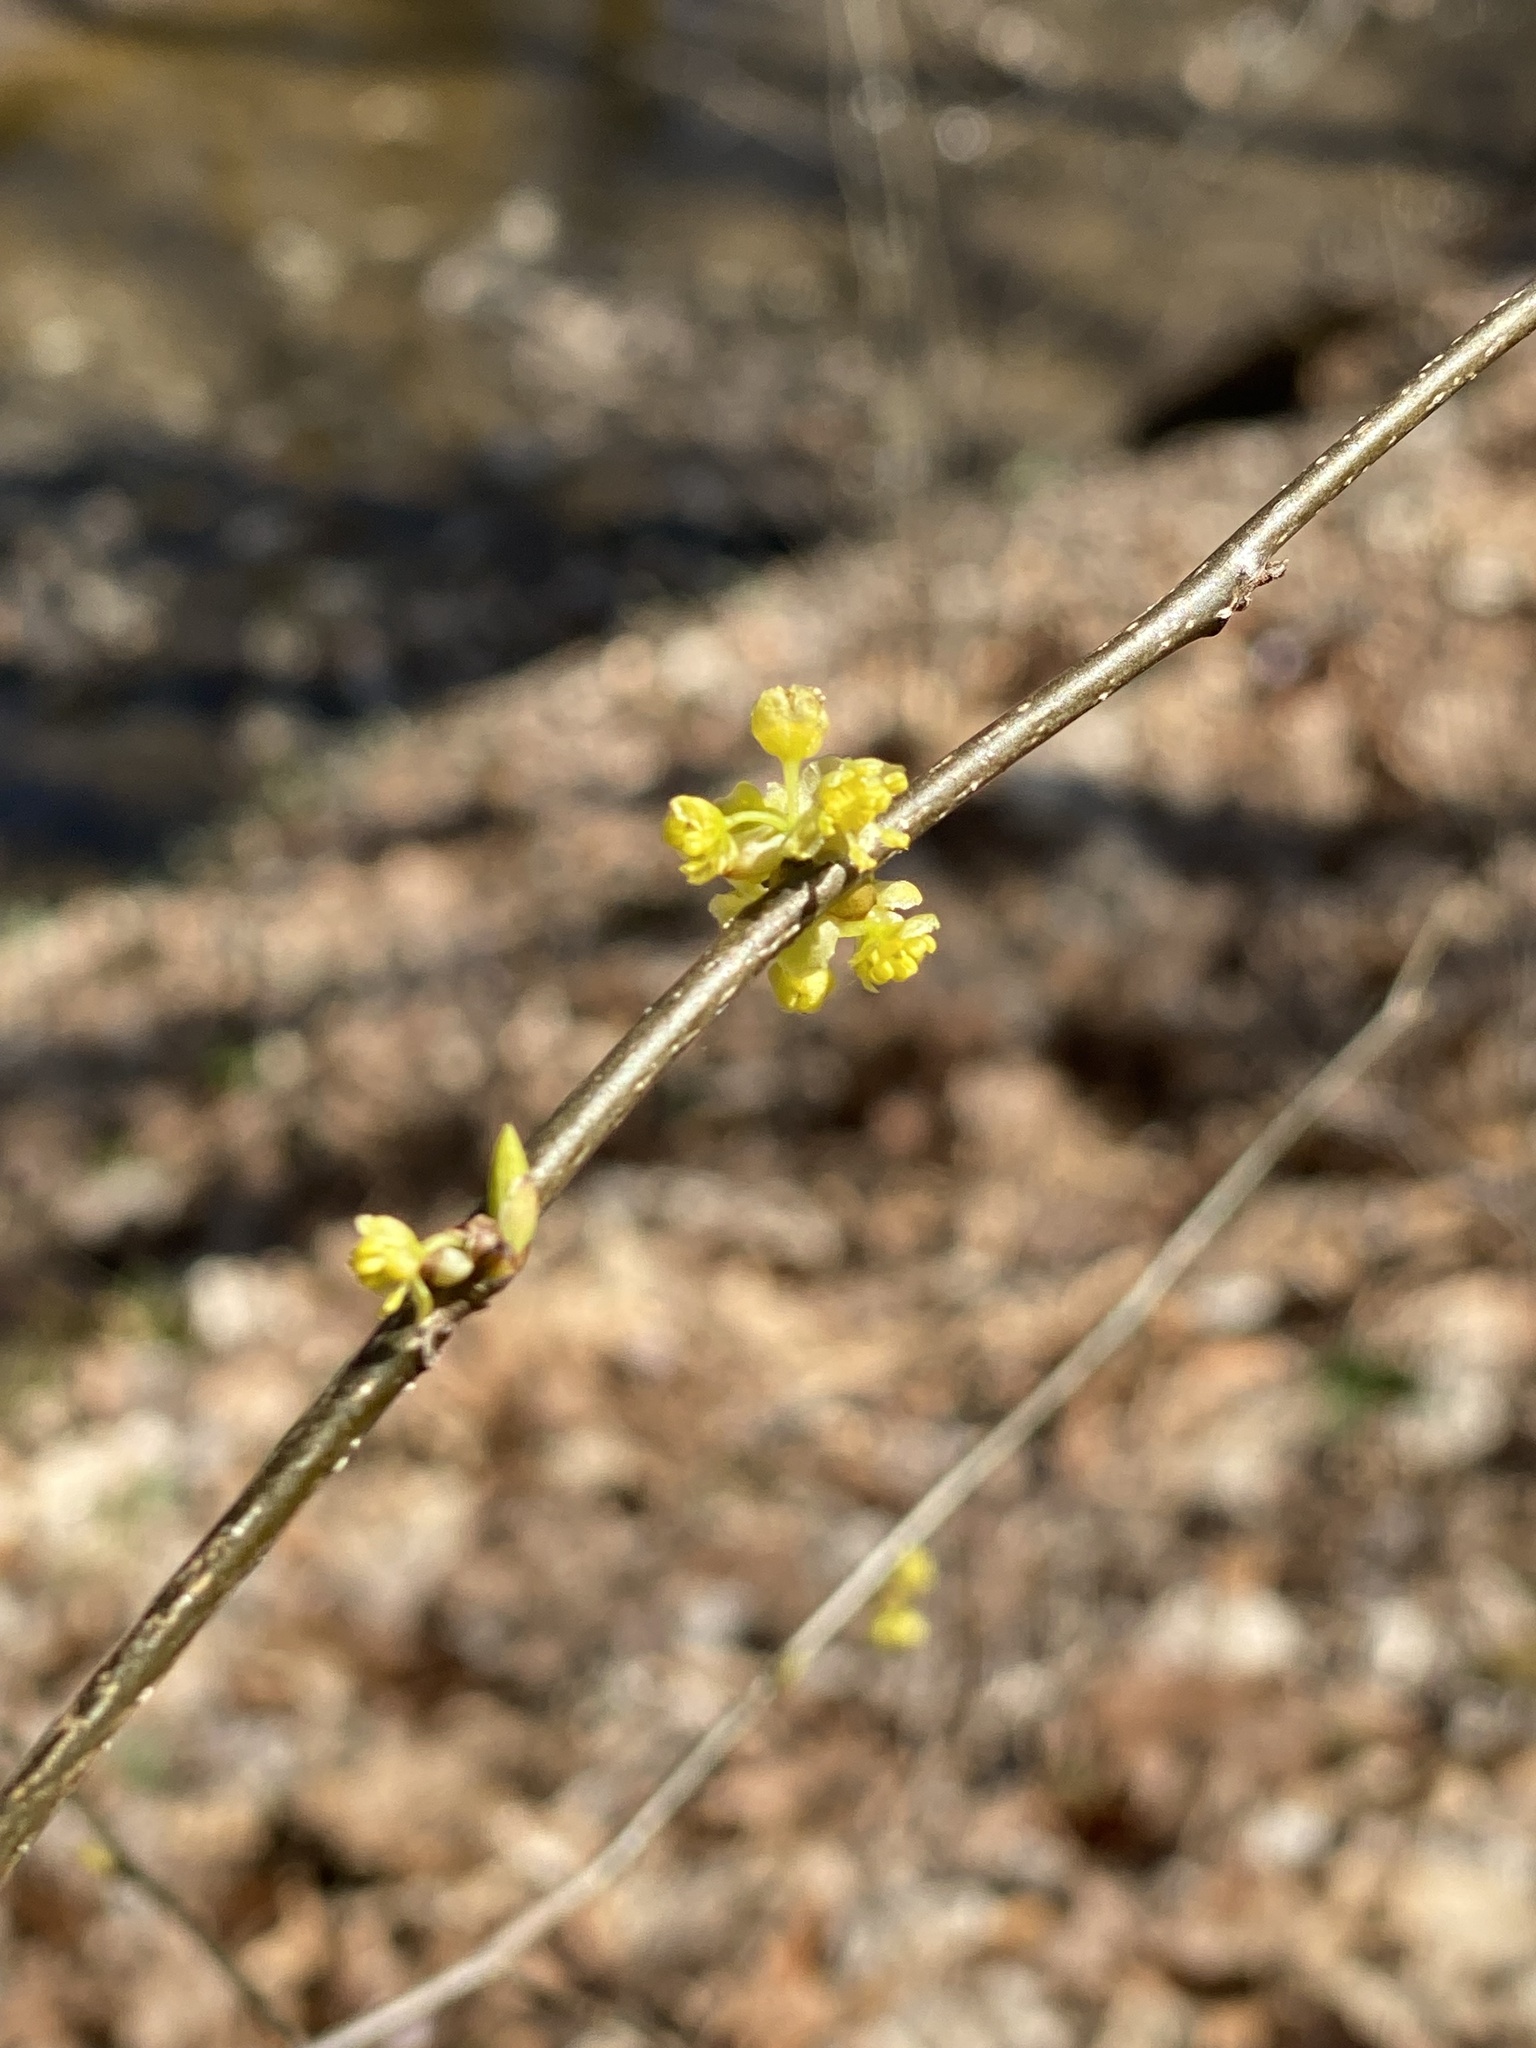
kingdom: Plantae
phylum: Tracheophyta
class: Magnoliopsida
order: Laurales
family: Lauraceae
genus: Lindera
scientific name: Lindera benzoin
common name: Spicebush
